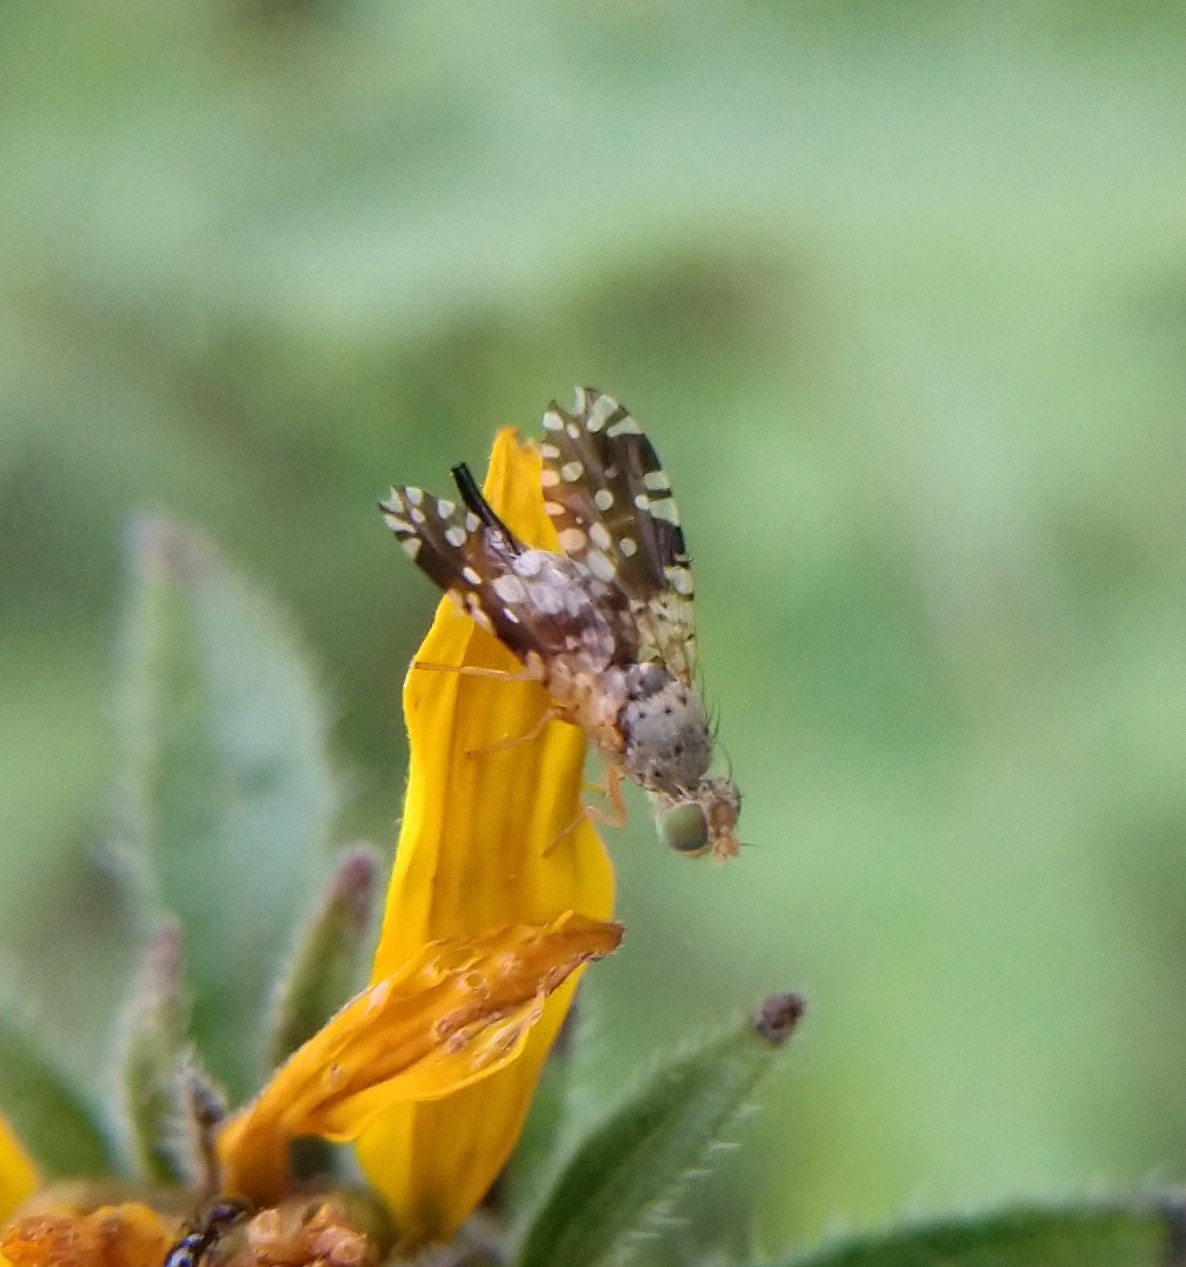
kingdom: Animalia
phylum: Arthropoda
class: Insecta
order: Diptera
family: Tephritidae
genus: Dyseuaresta
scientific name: Dyseuaresta mexicana
